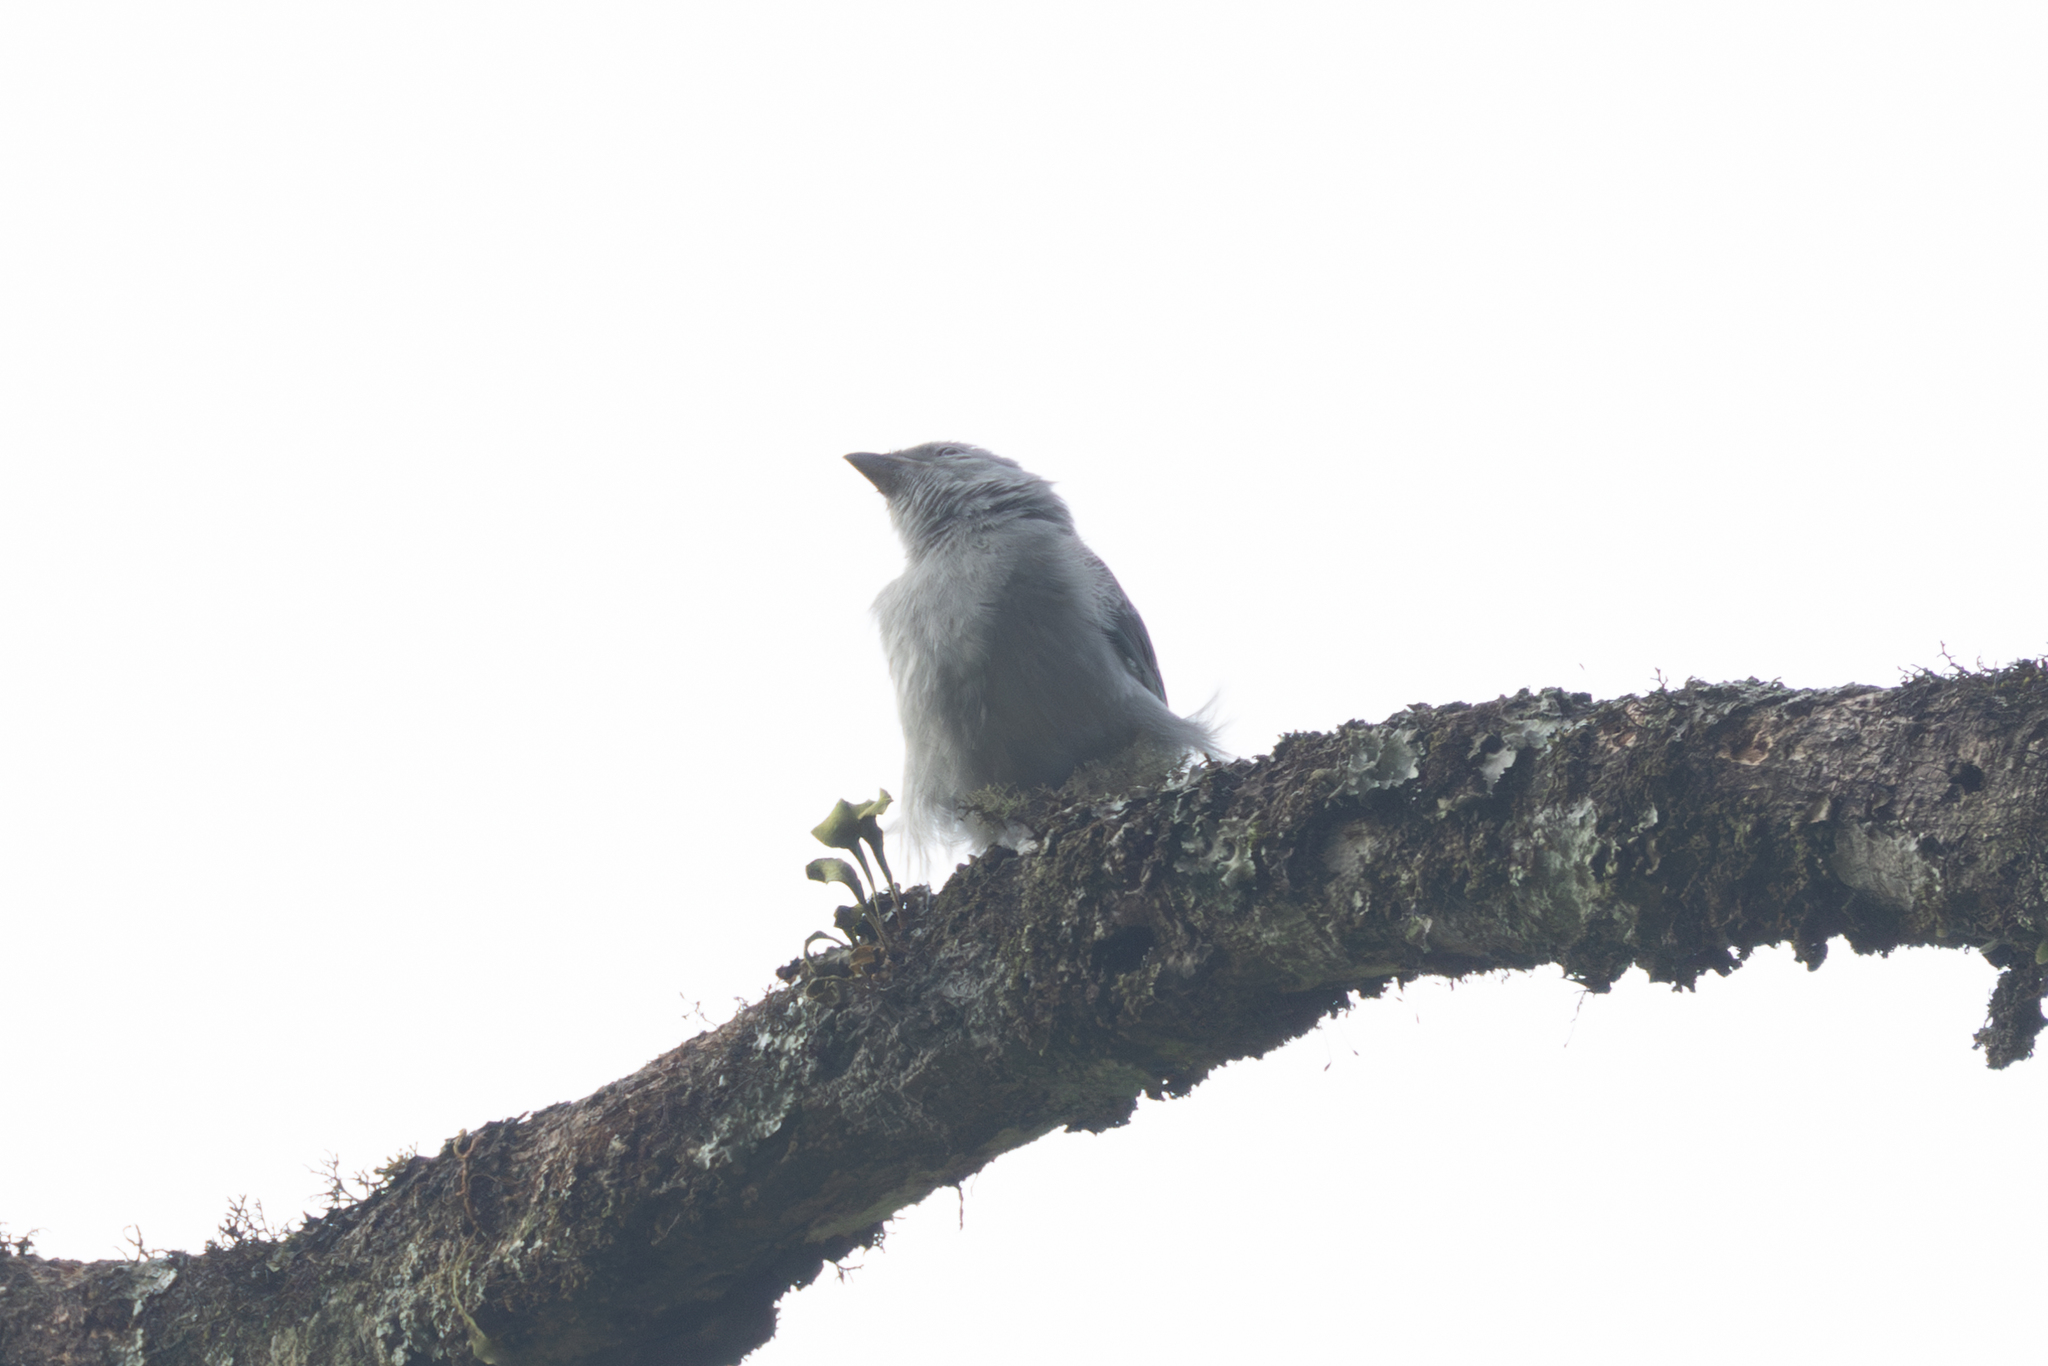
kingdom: Animalia
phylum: Chordata
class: Aves
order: Passeriformes
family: Thraupidae
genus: Thraupis
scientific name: Thraupis episcopus
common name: Blue-grey tanager
